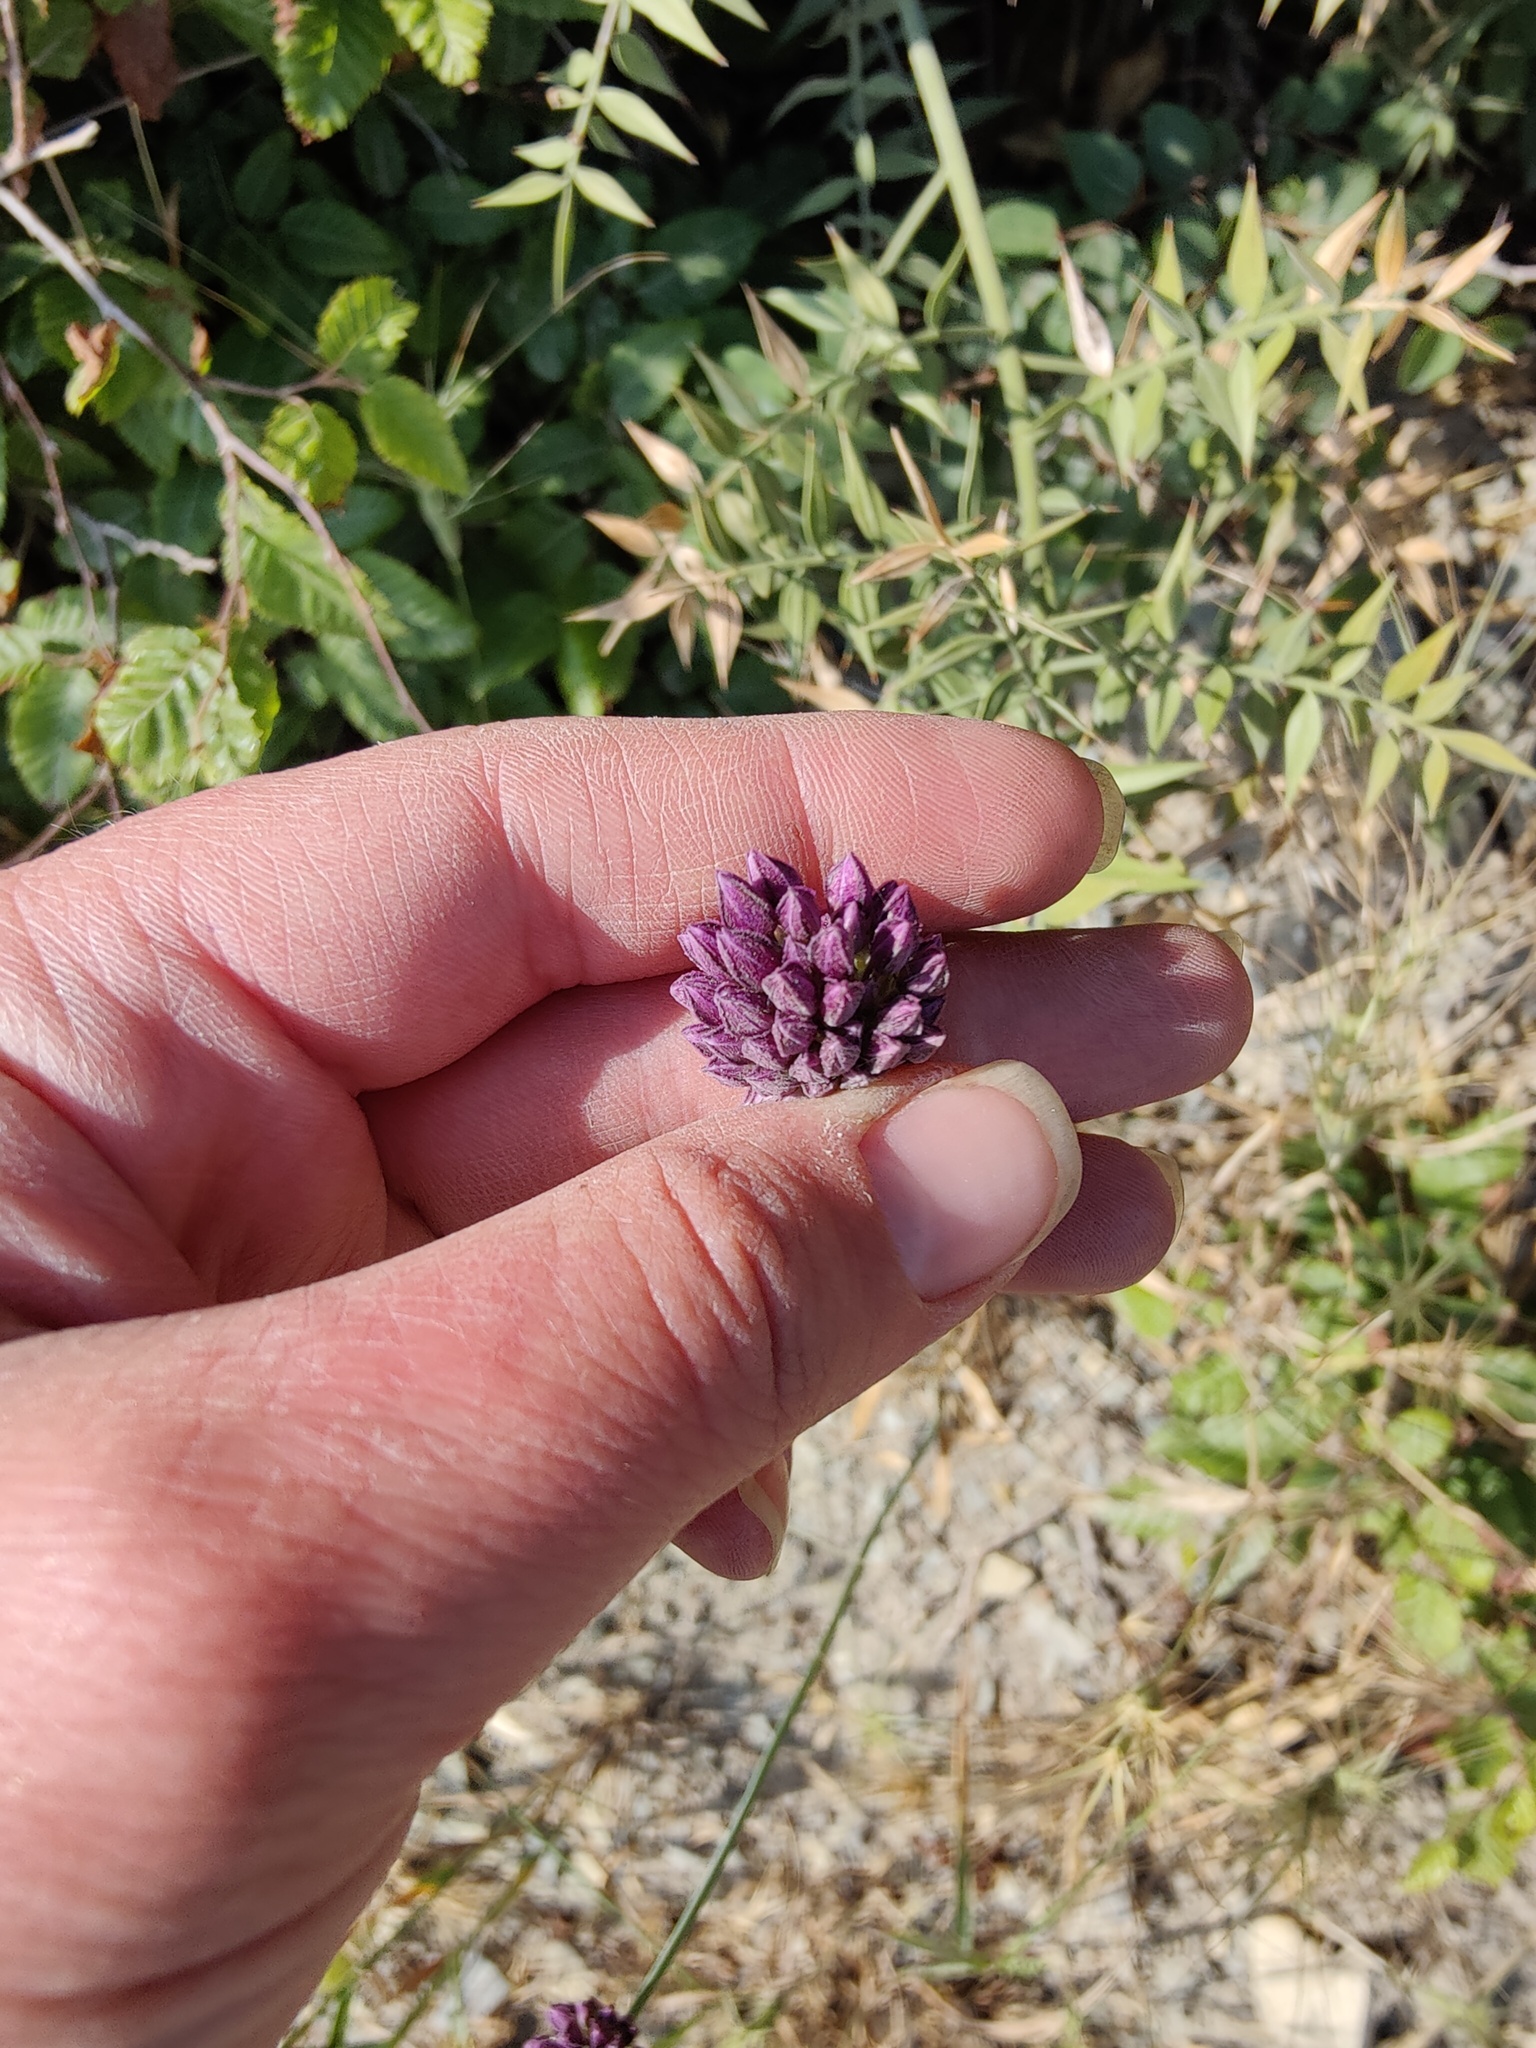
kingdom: Plantae
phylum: Tracheophyta
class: Liliopsida
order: Asparagales
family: Amaryllidaceae
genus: Allium
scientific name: Allium rotundum
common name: Sand leek
